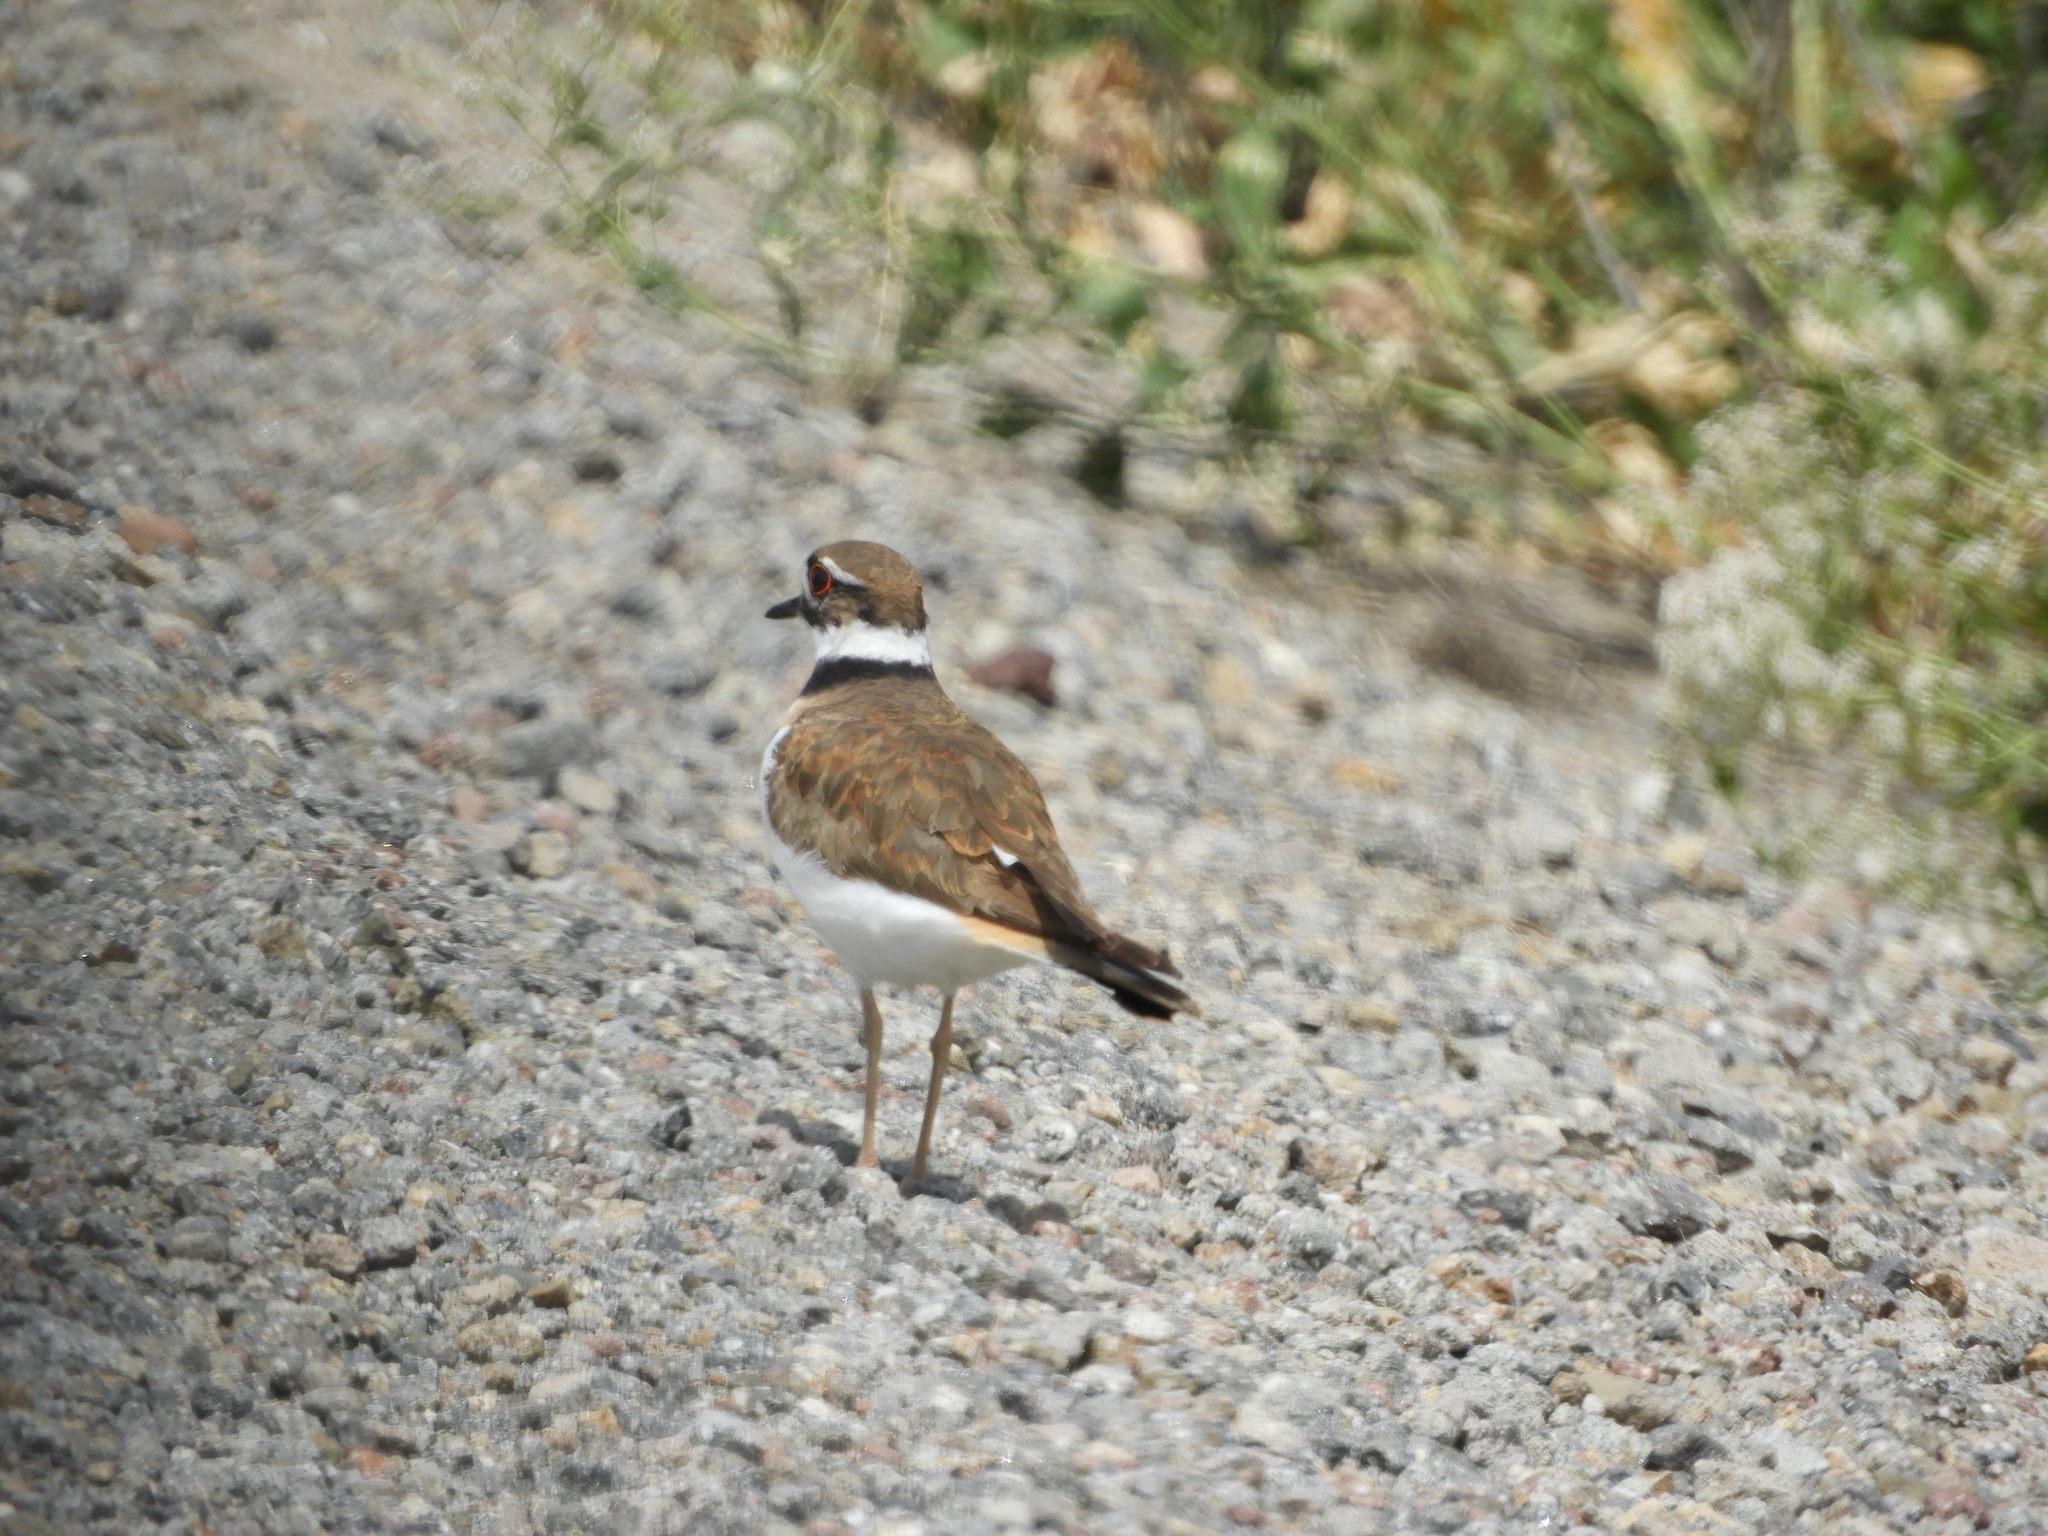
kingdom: Animalia
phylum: Chordata
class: Aves
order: Charadriiformes
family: Charadriidae
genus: Charadrius
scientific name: Charadrius vociferus
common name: Killdeer
